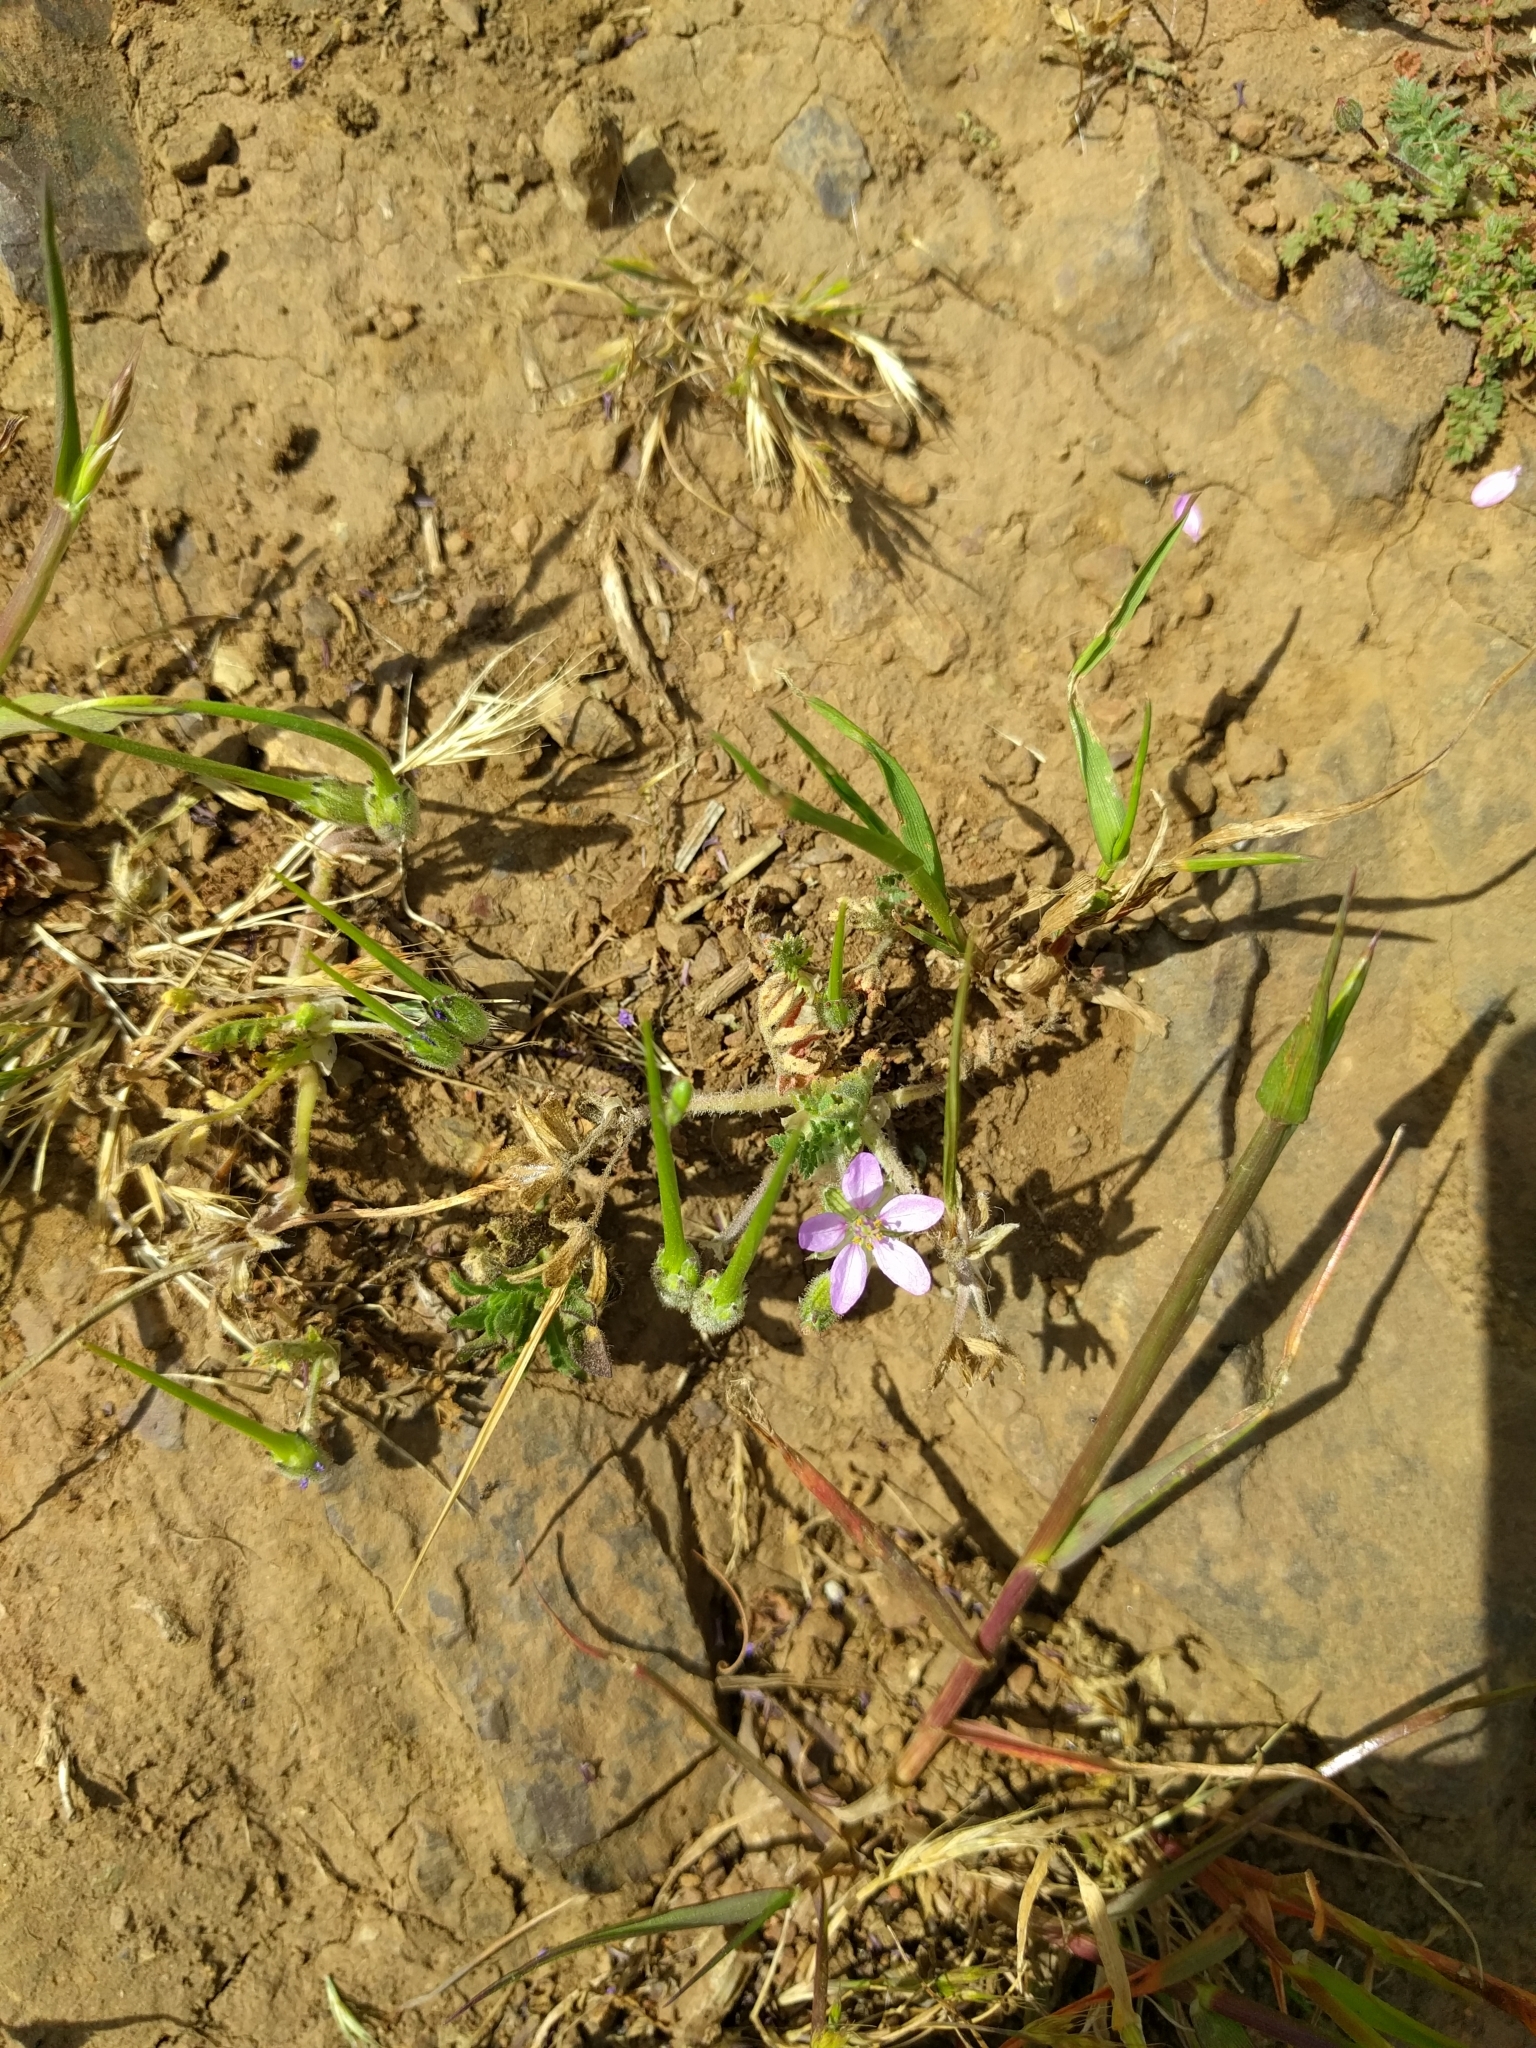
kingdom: Plantae
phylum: Tracheophyta
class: Magnoliopsida
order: Geraniales
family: Geraniaceae
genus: Erodium
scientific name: Erodium cicutarium
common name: Common stork's-bill
